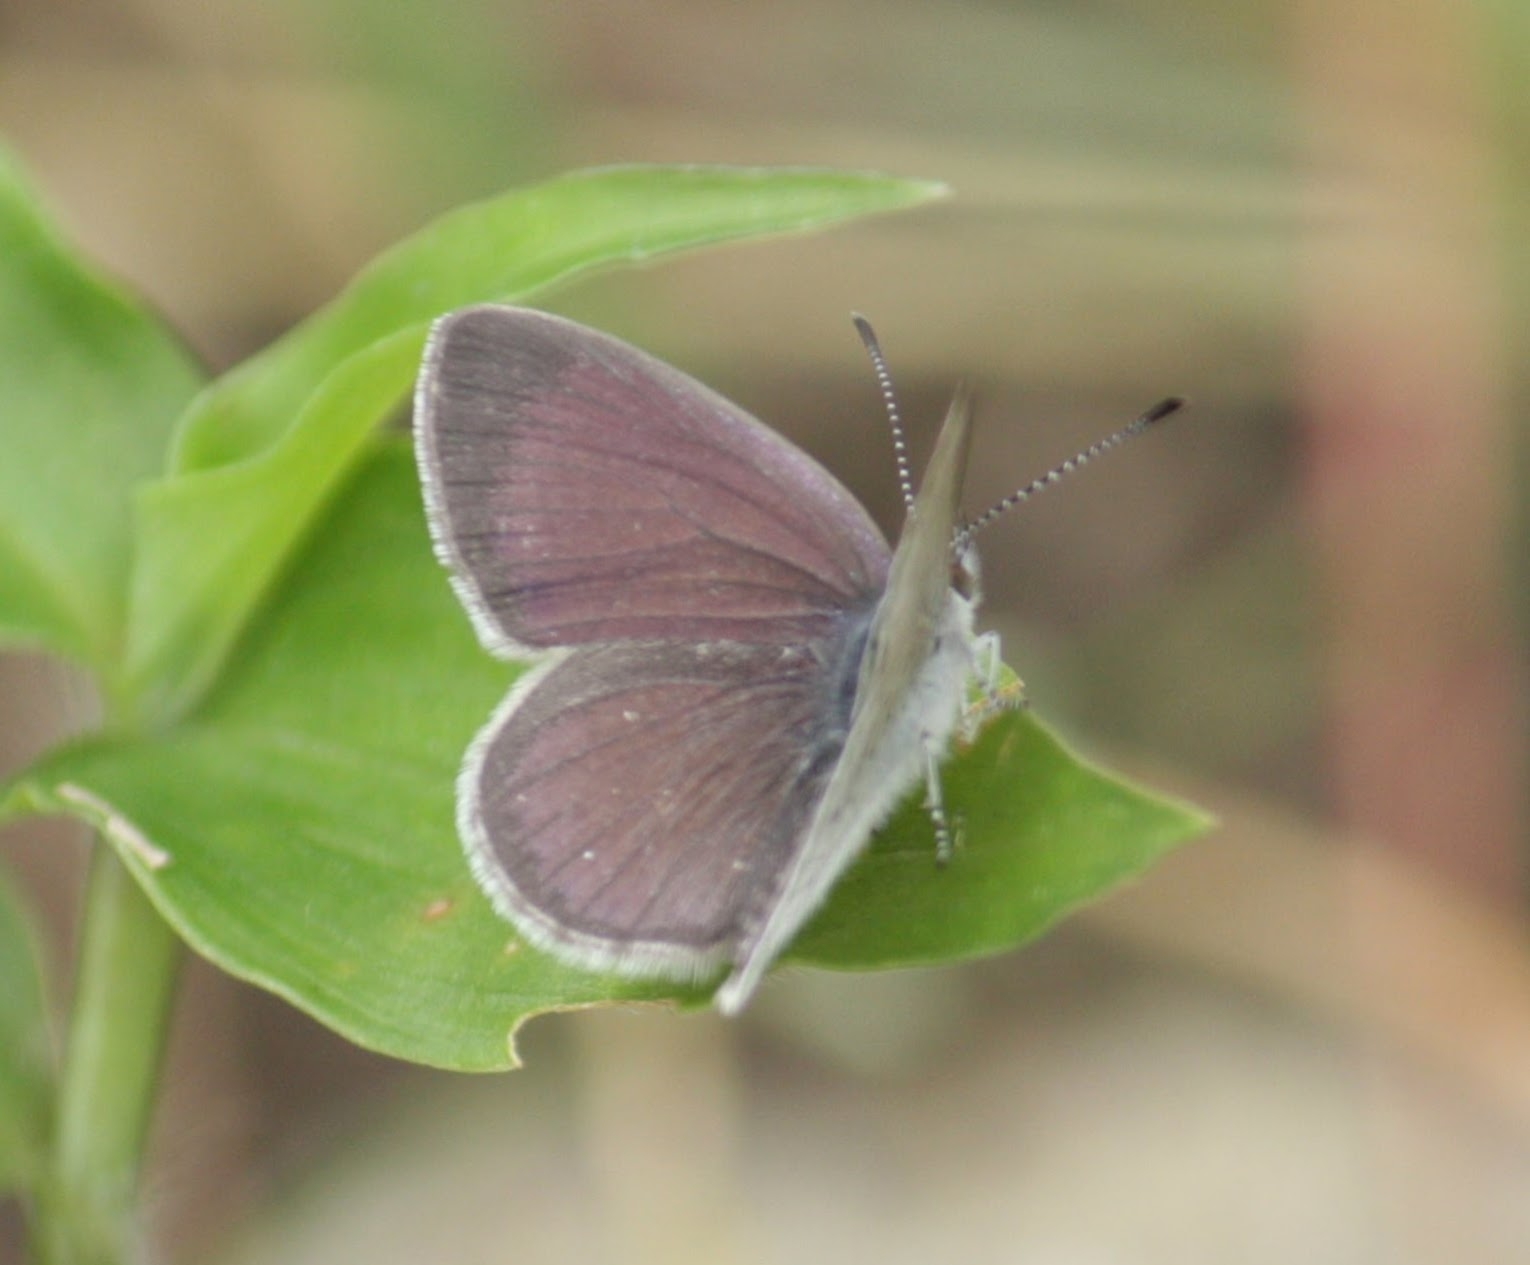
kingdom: Animalia
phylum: Arthropoda
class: Insecta
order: Lepidoptera
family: Lycaenidae
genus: Candalides
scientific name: Candalides
